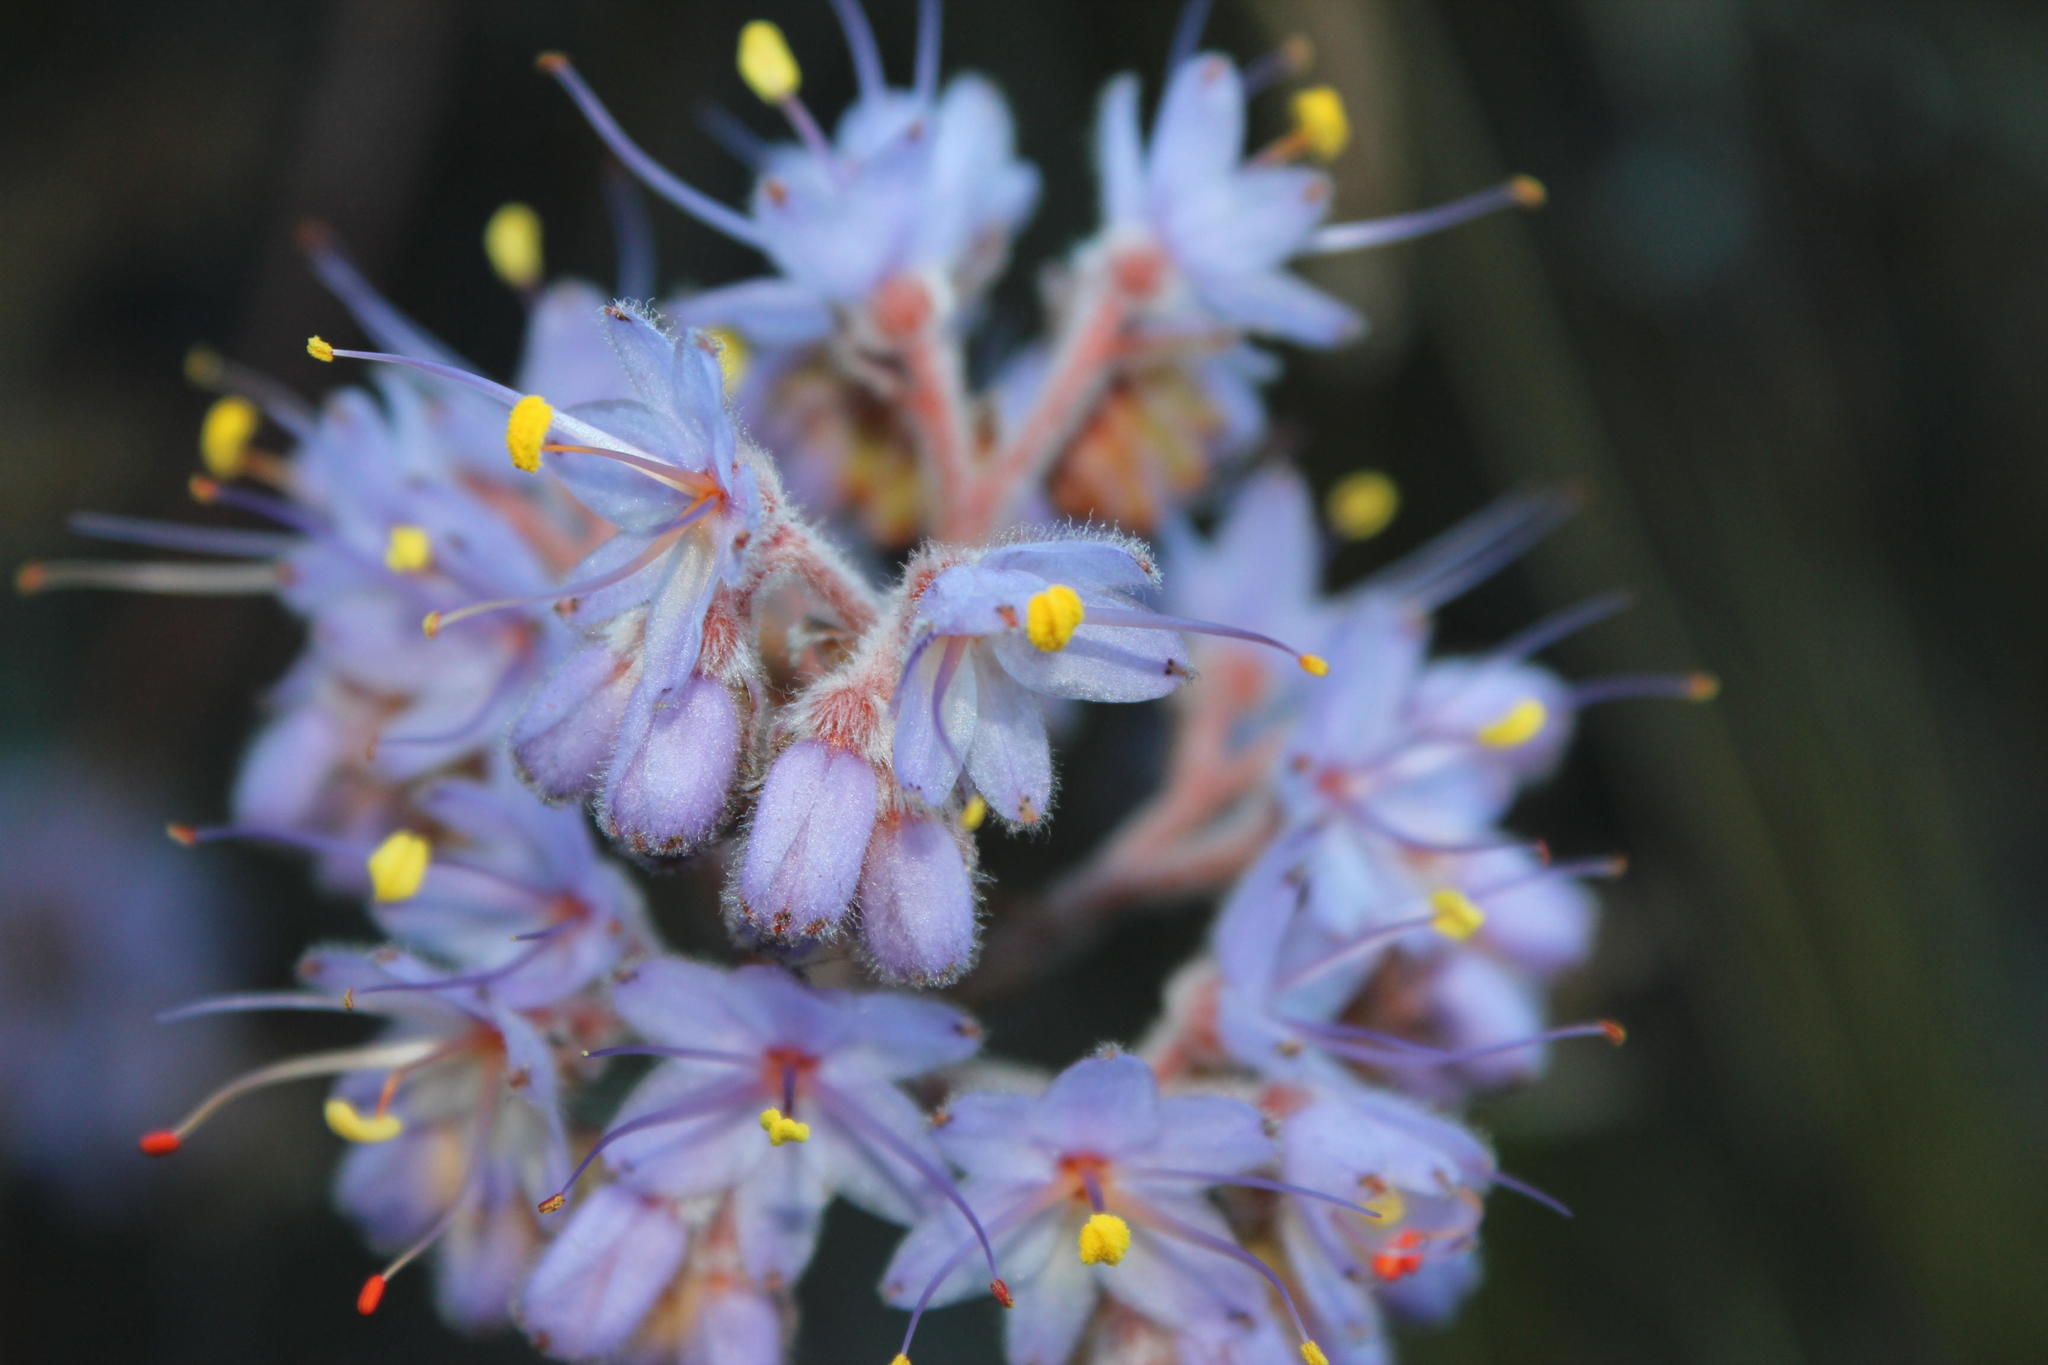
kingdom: Plantae
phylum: Tracheophyta
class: Liliopsida
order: Commelinales
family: Haemodoraceae
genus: Dilatris
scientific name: Dilatris ixioides
